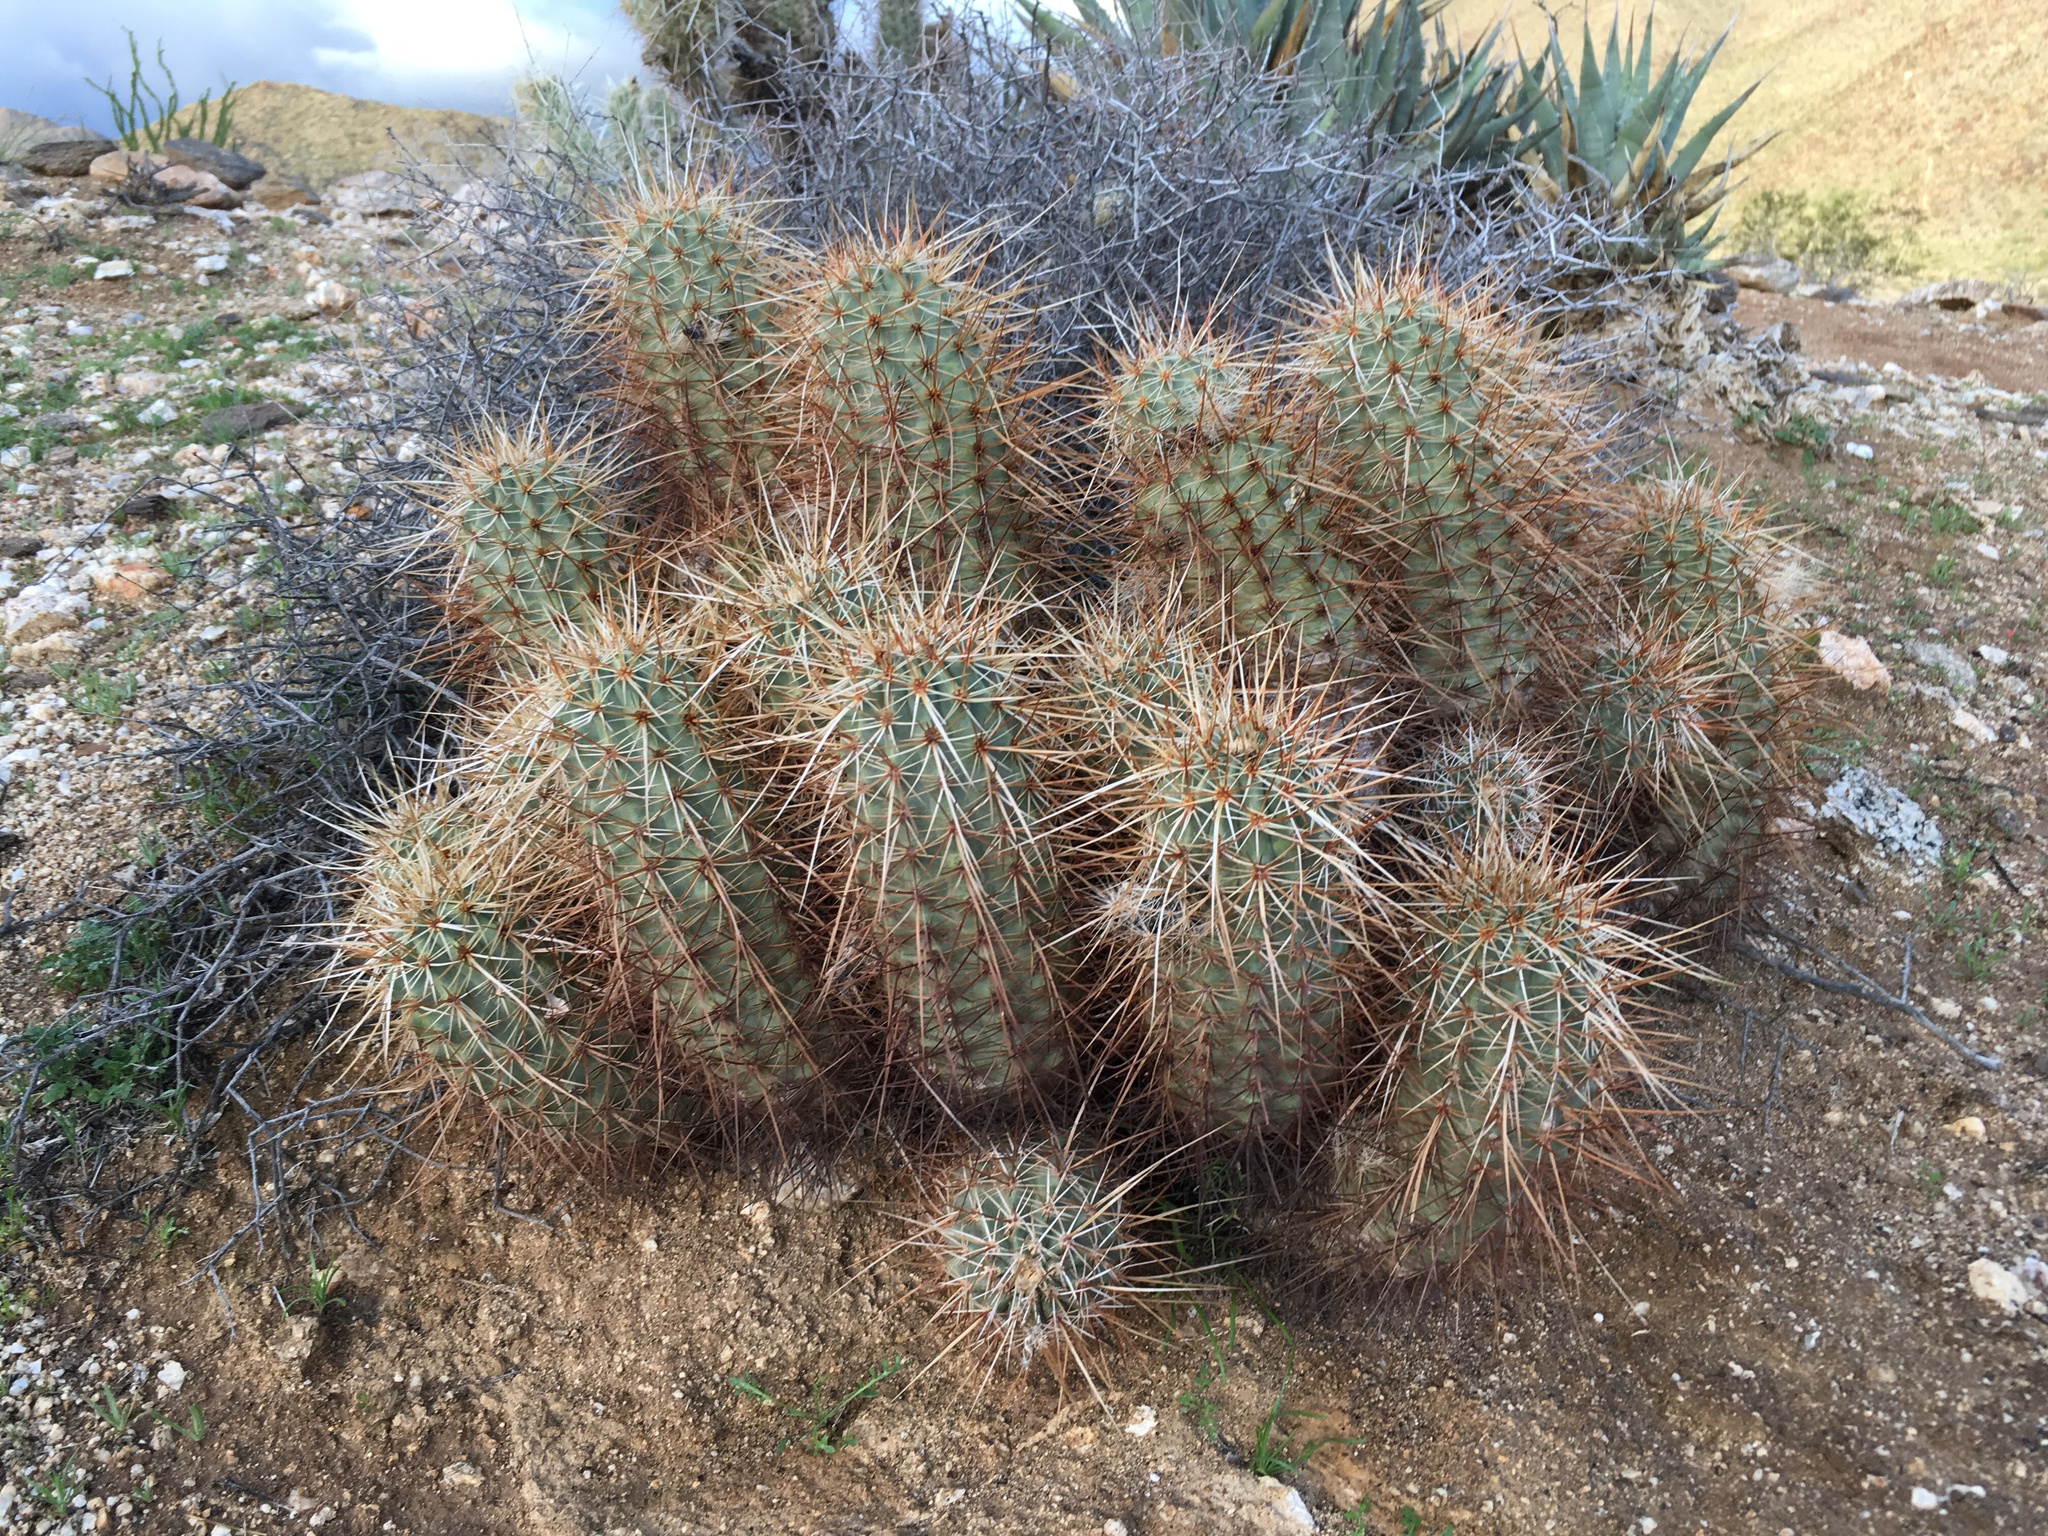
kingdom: Plantae
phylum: Tracheophyta
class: Magnoliopsida
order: Caryophyllales
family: Cactaceae
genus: Echinocereus
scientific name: Echinocereus engelmannii
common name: Engelmann's hedgehog cactus
